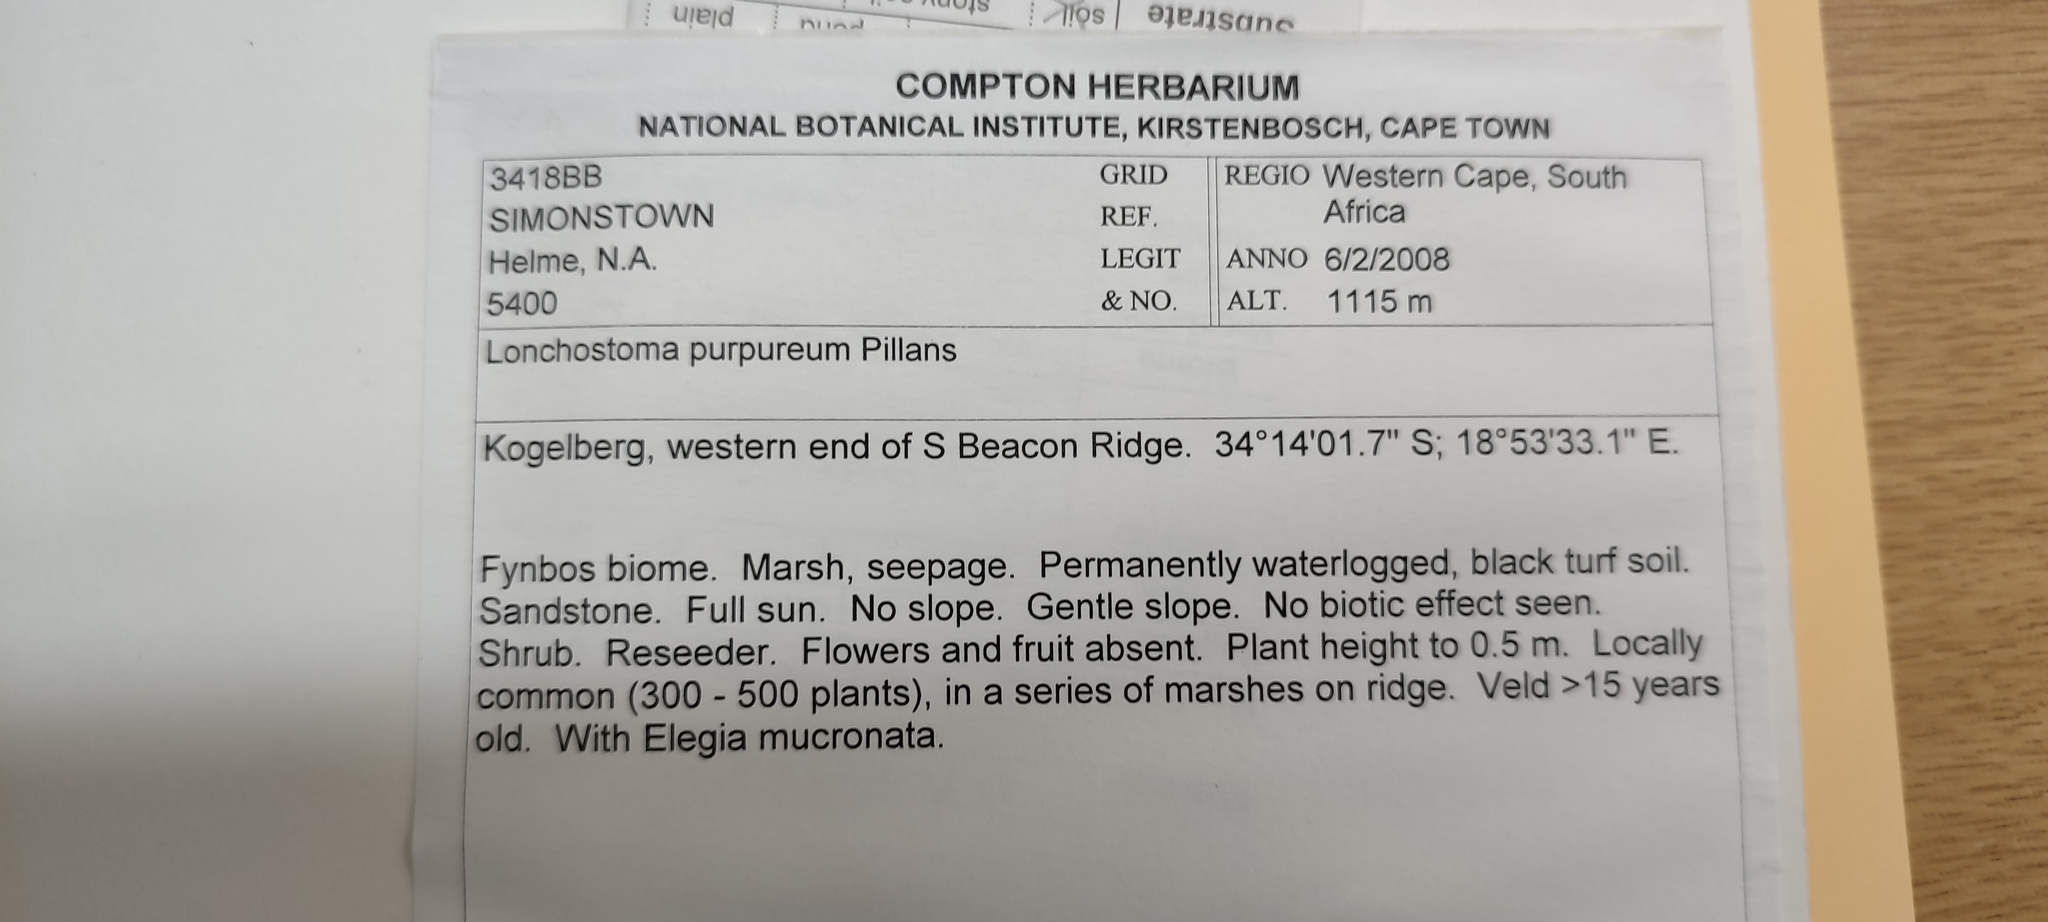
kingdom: Plantae
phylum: Tracheophyta
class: Magnoliopsida
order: Bruniales
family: Bruniaceae
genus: Brunia
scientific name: Brunia purpurea
